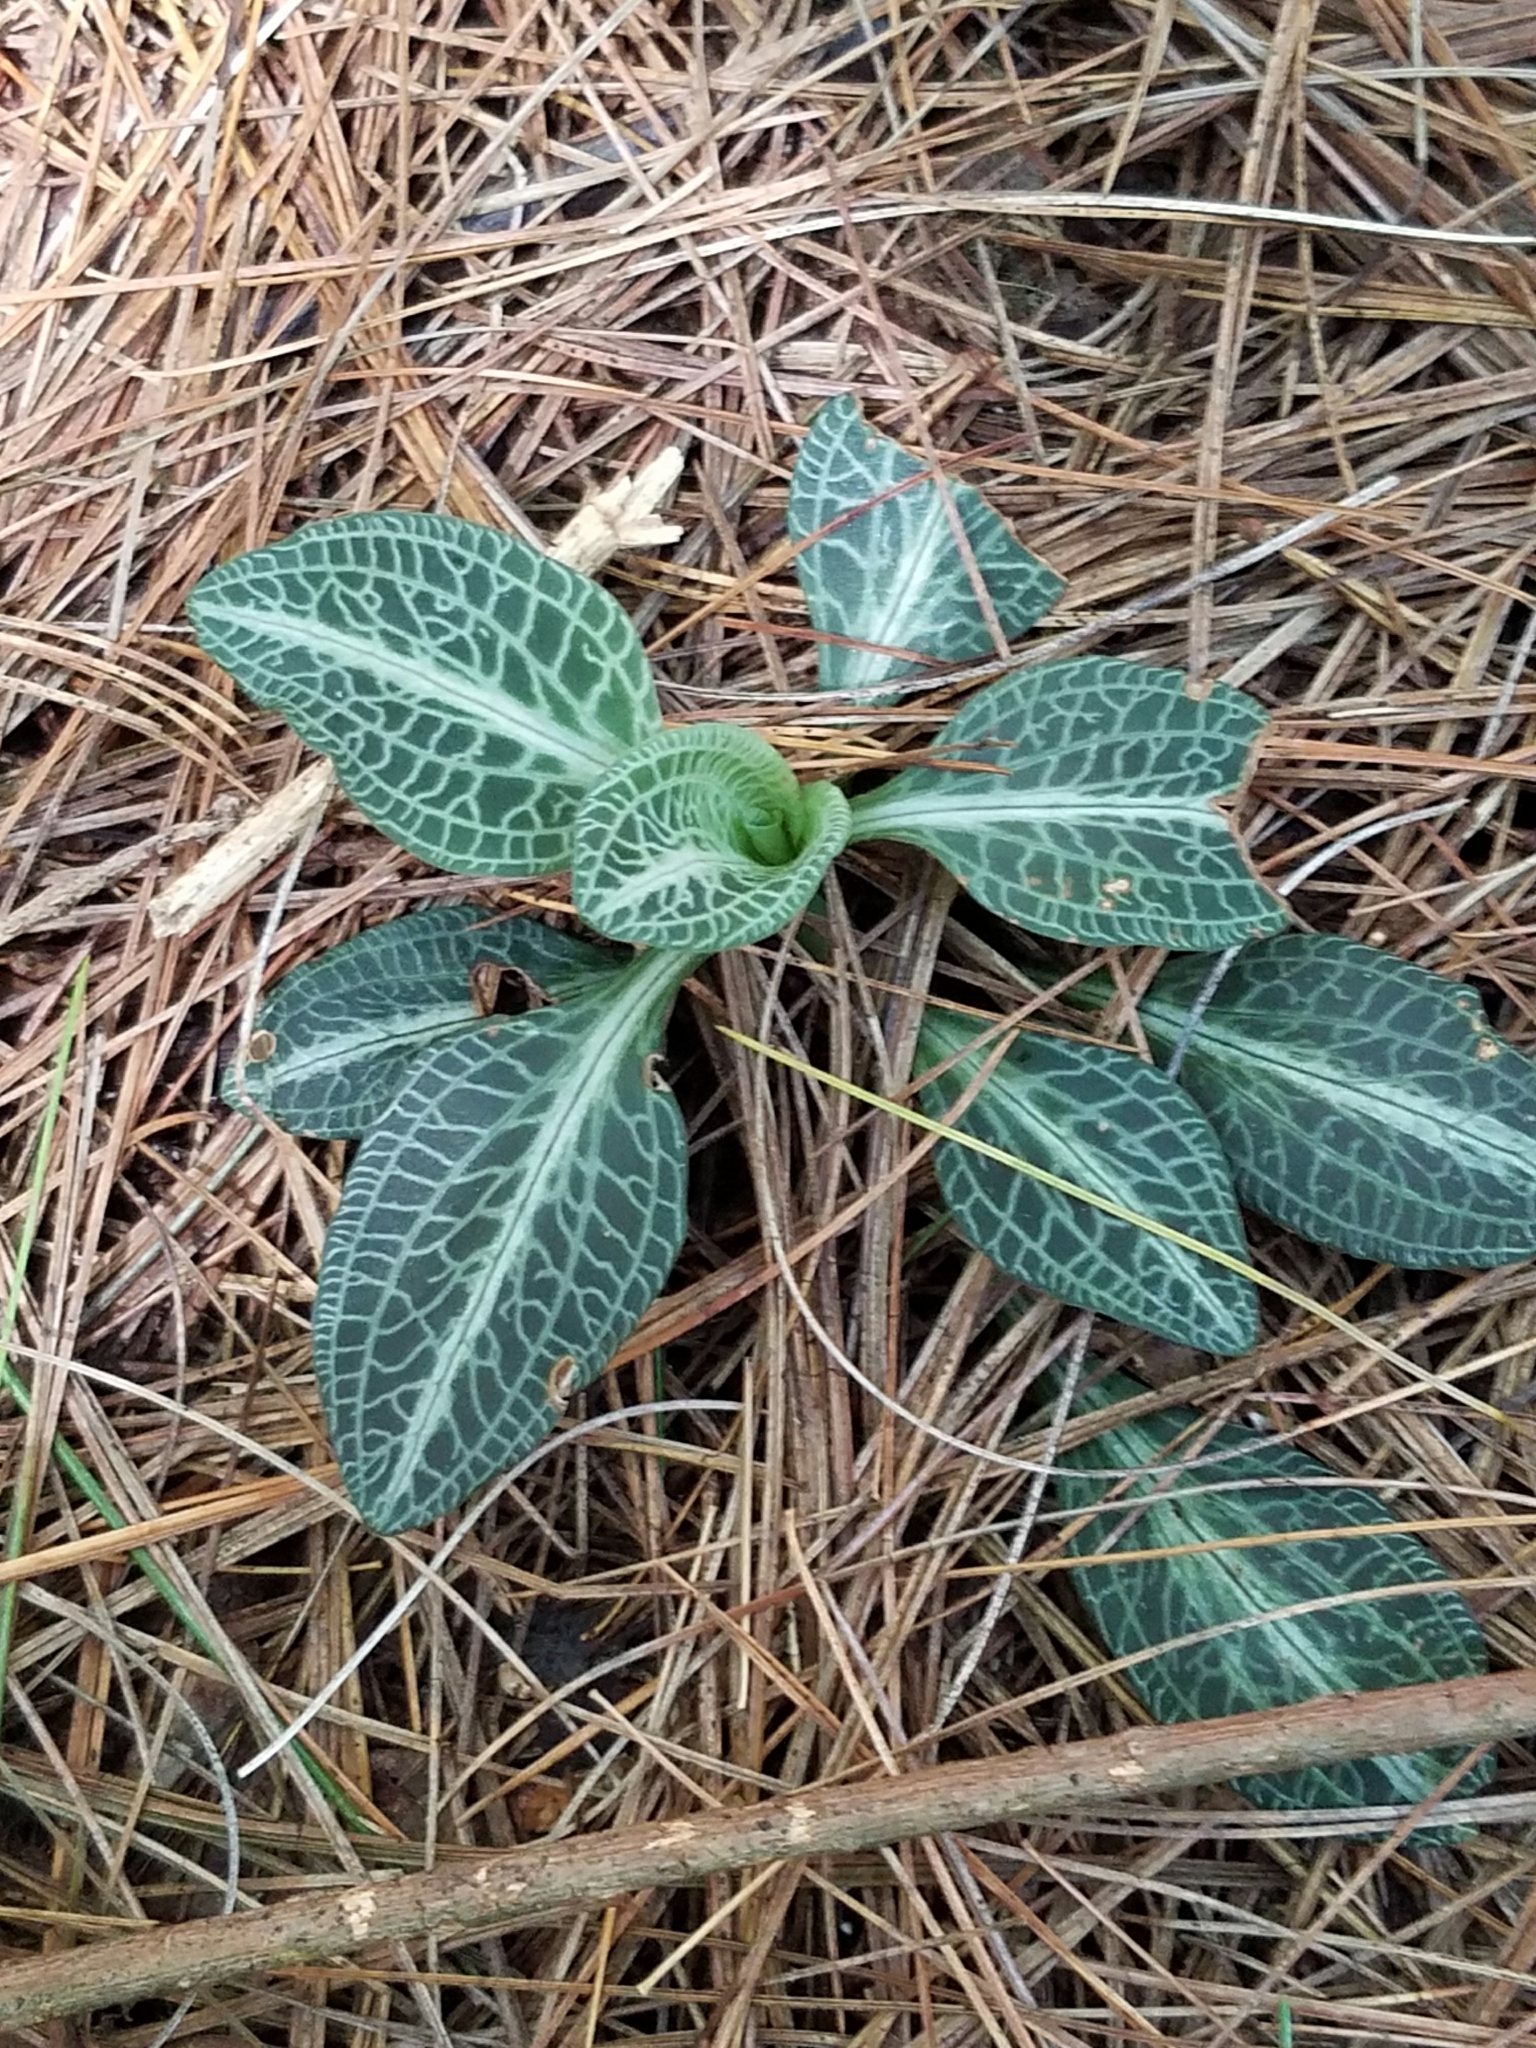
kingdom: Plantae
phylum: Tracheophyta
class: Liliopsida
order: Asparagales
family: Orchidaceae
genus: Goodyera
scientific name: Goodyera pubescens
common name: Downy rattlesnake-plantain
